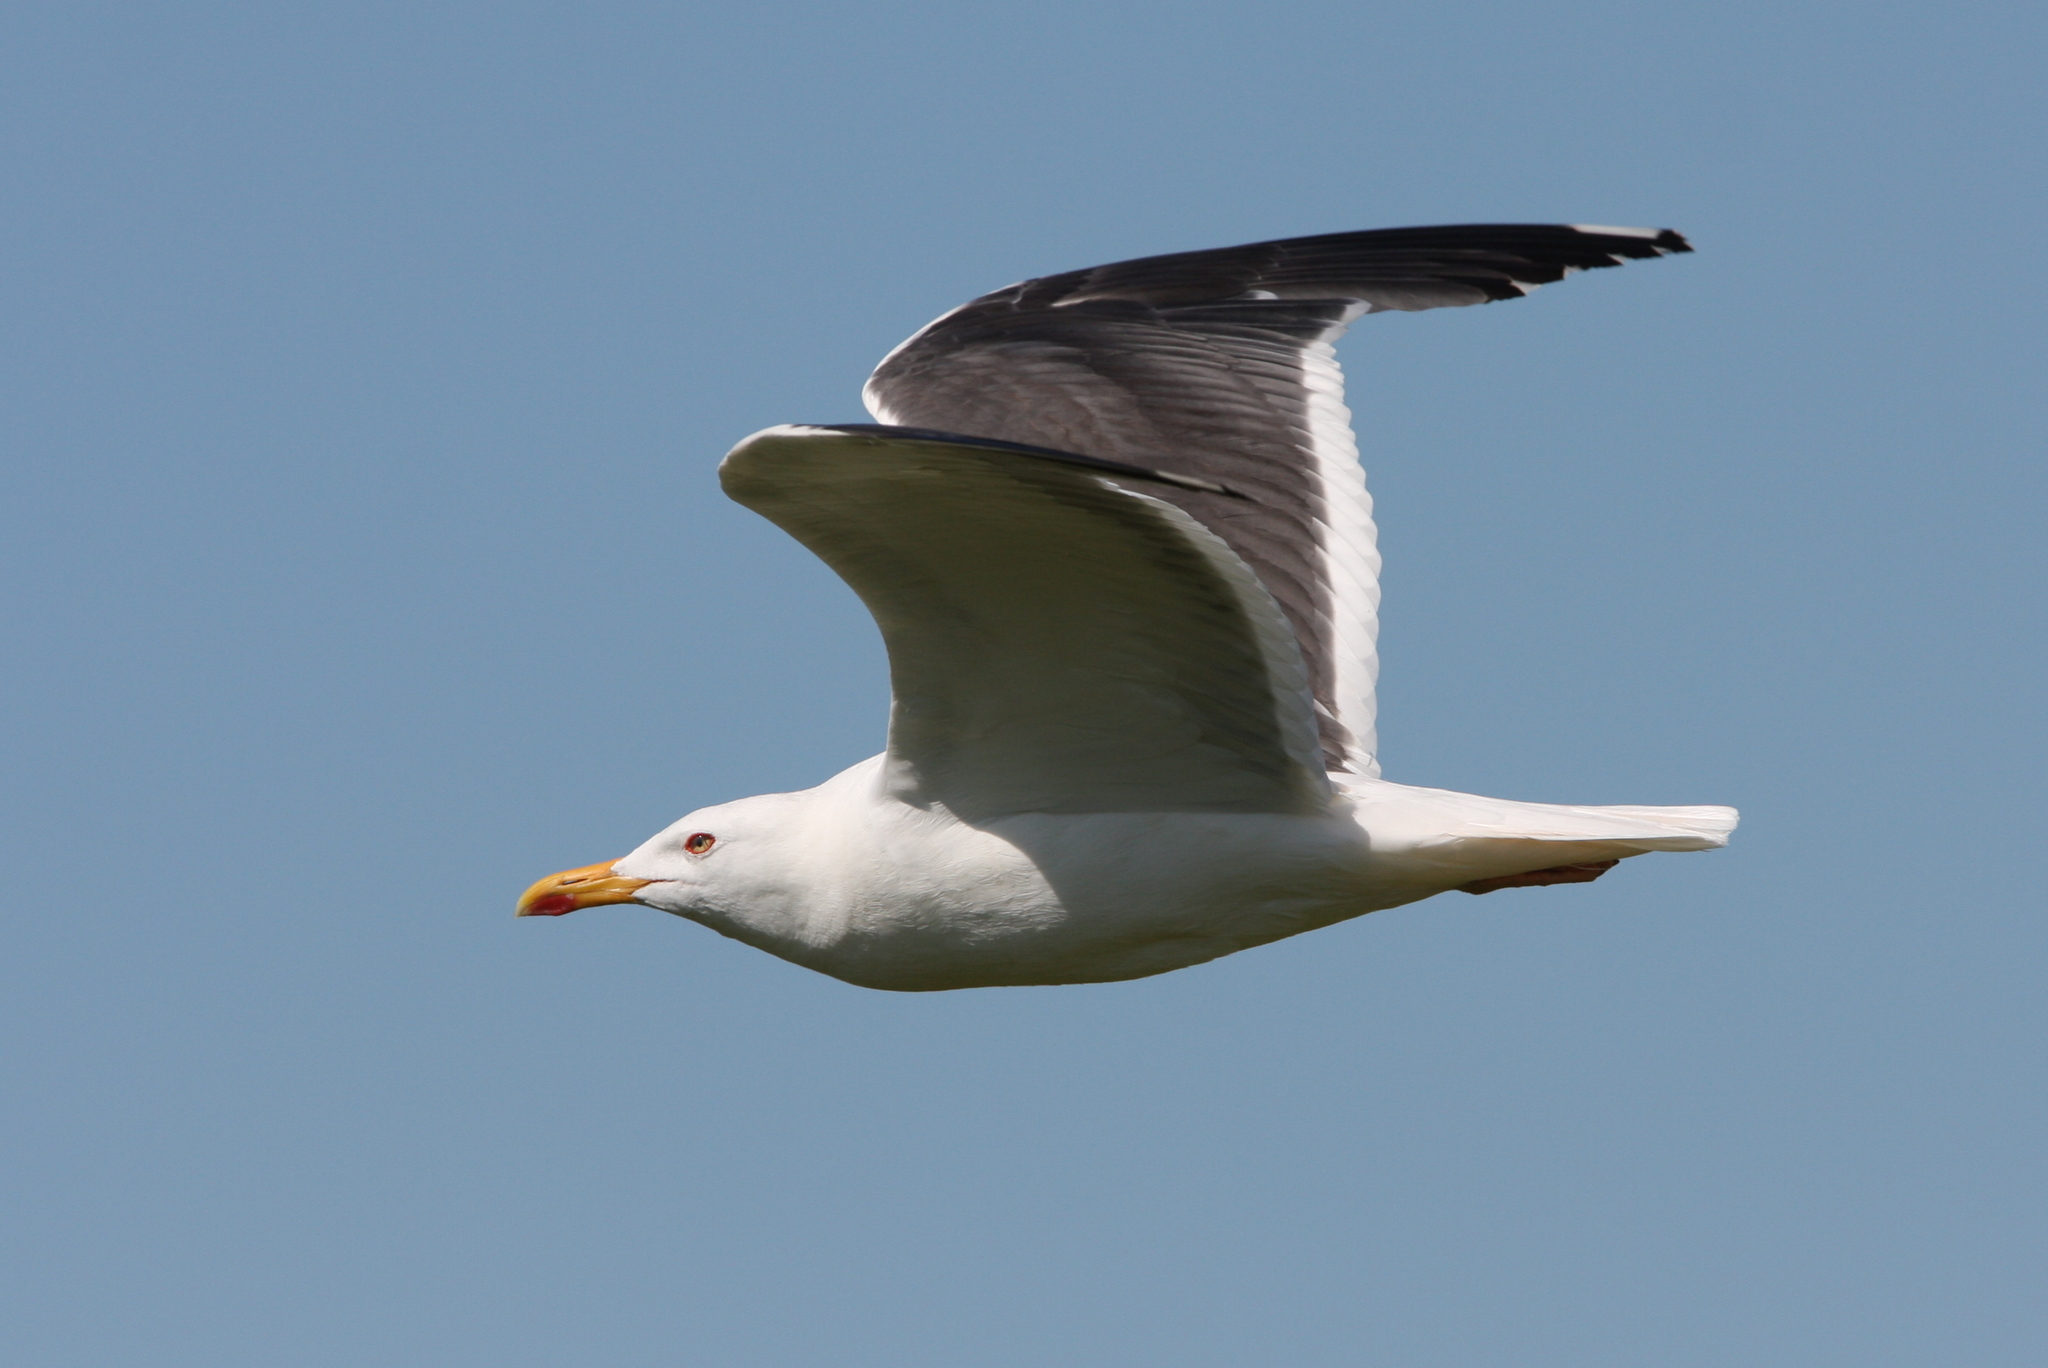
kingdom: Animalia
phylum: Chordata
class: Aves
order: Charadriiformes
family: Laridae
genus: Larus
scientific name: Larus fuscus
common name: Lesser black-backed gull
